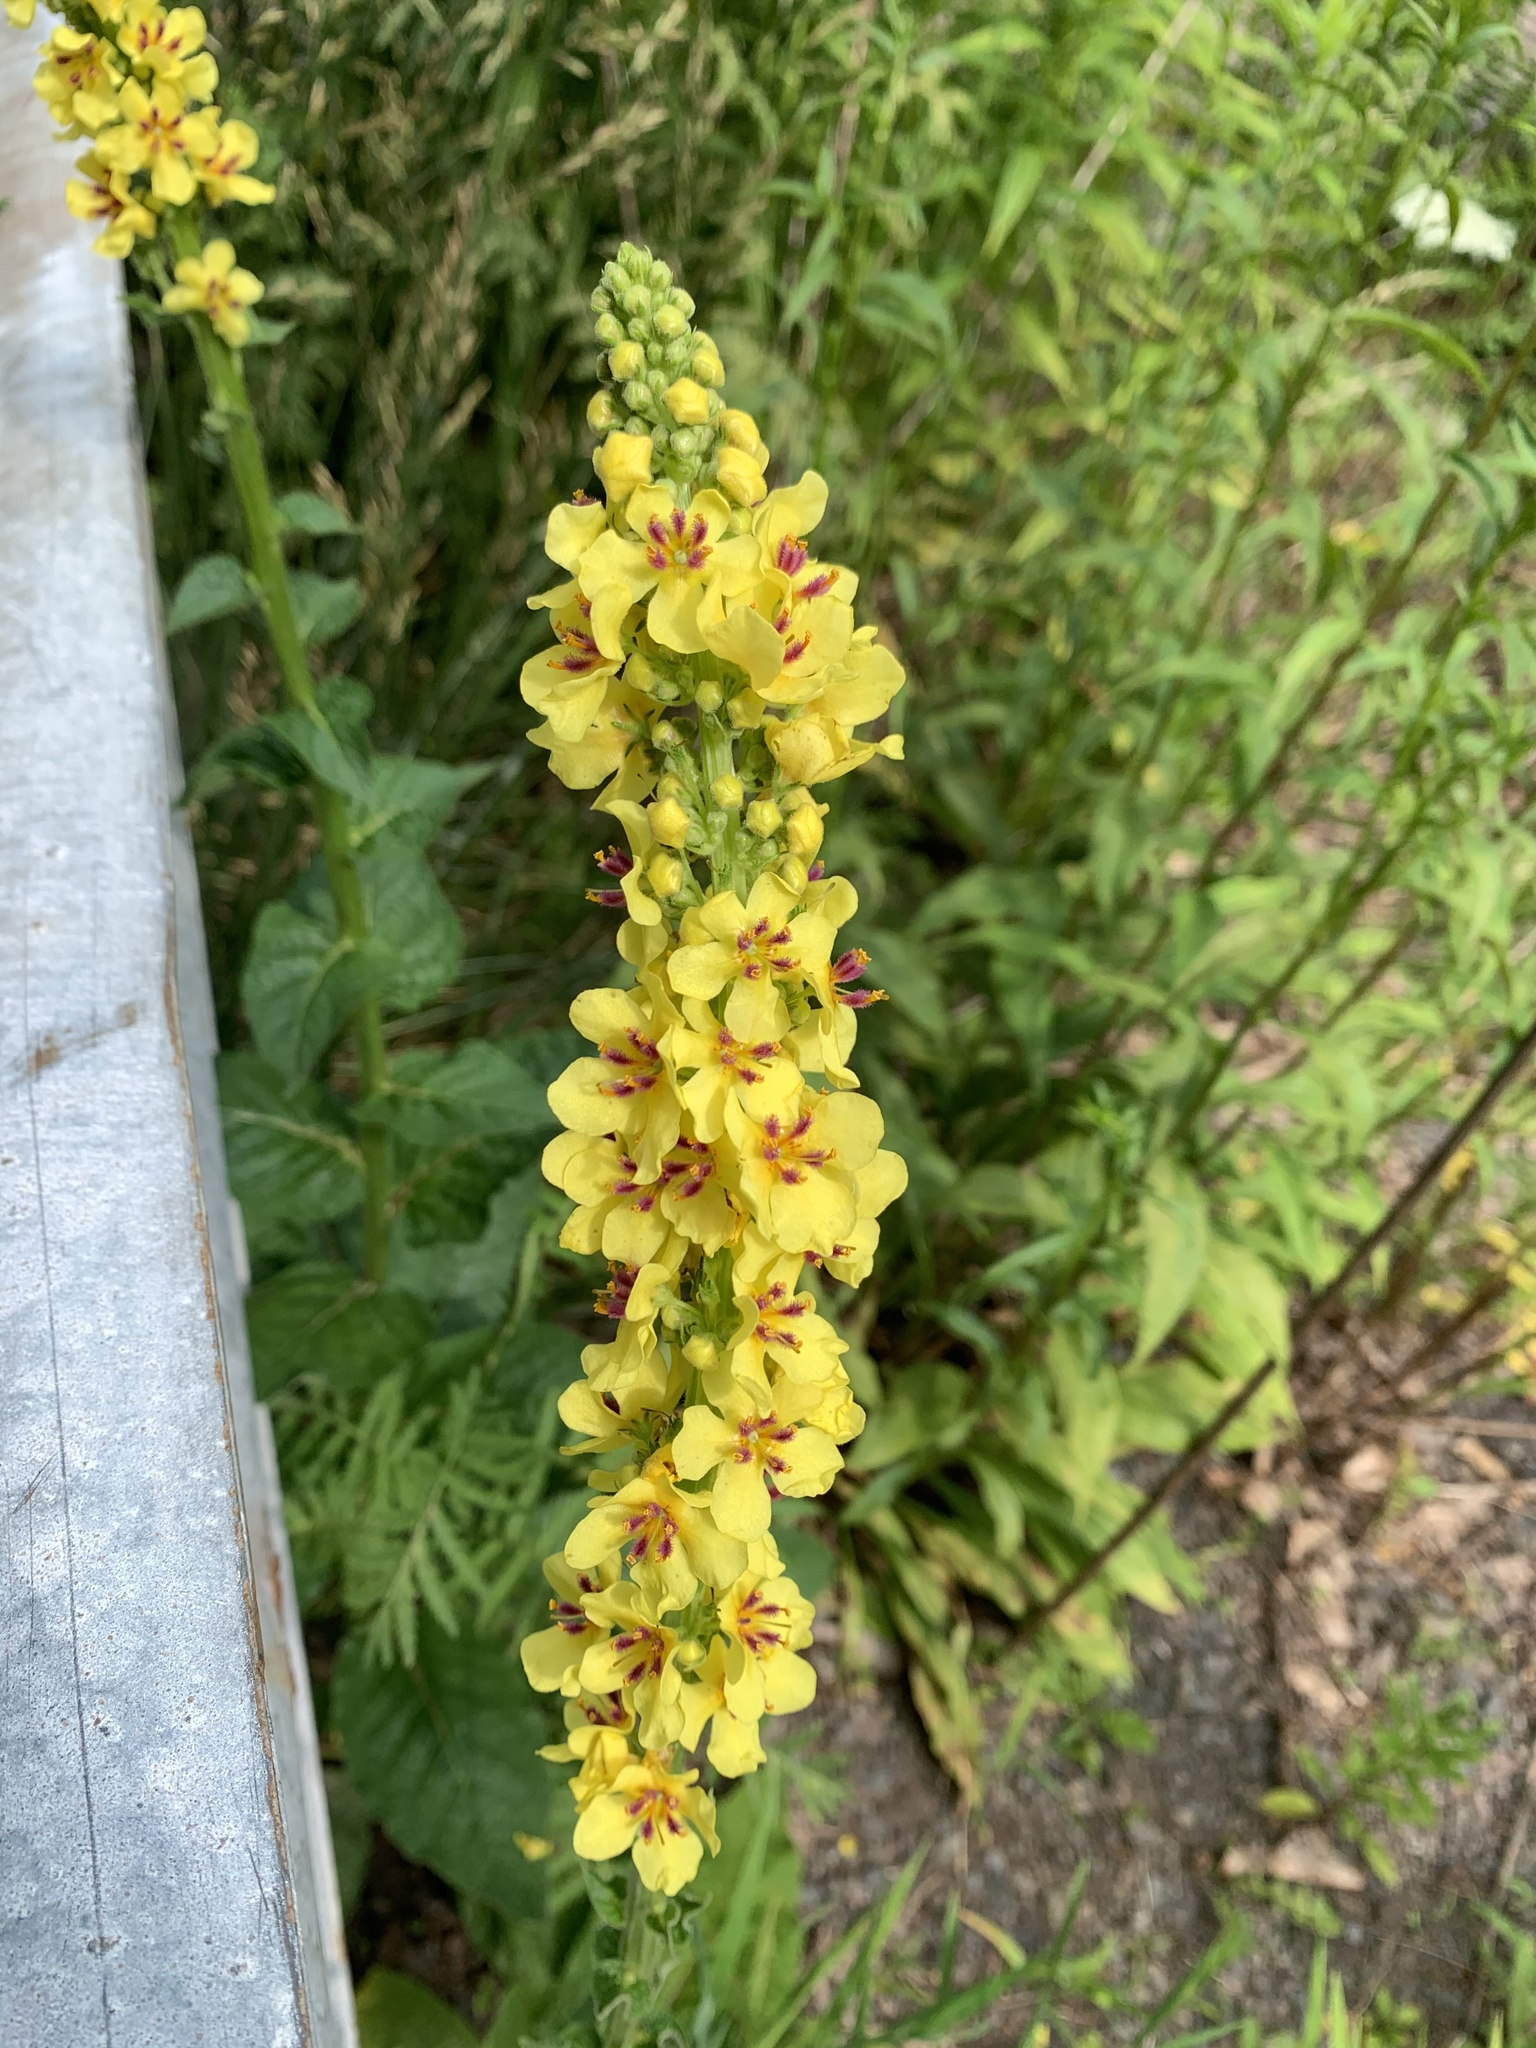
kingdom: Plantae
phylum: Tracheophyta
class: Magnoliopsida
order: Lamiales
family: Scrophulariaceae
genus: Verbascum
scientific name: Verbascum nigrum
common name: Dark mullein
